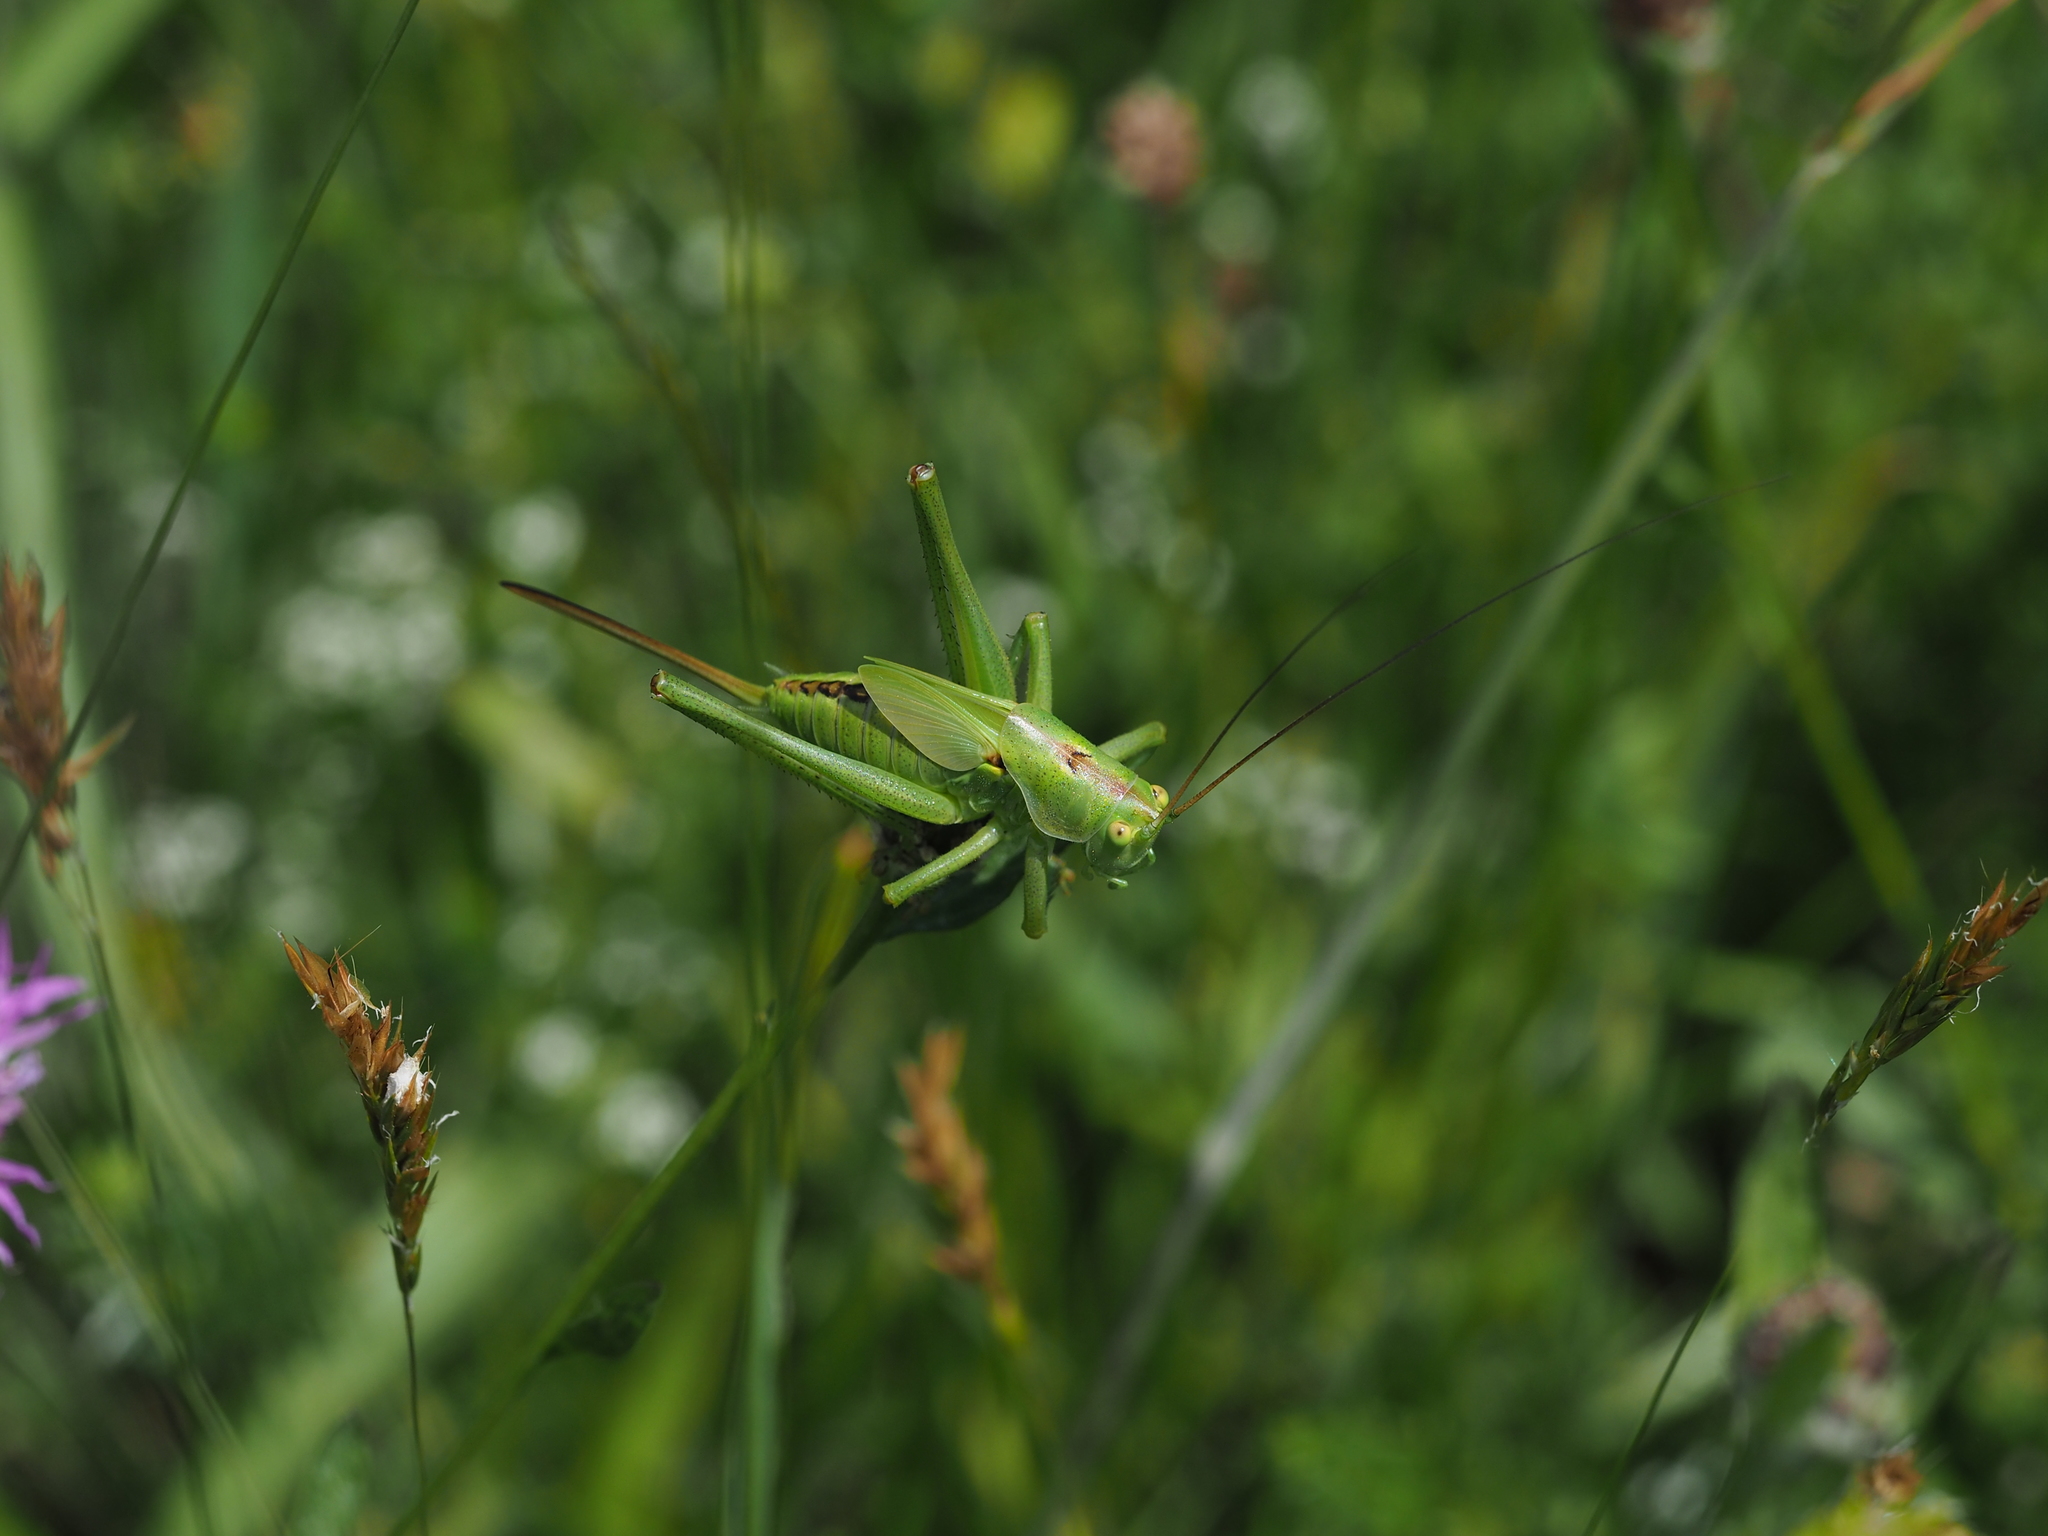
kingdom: Animalia
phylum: Arthropoda
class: Insecta
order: Orthoptera
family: Tettigoniidae
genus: Tettigonia
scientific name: Tettigonia viridissima
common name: Great green bush-cricket
